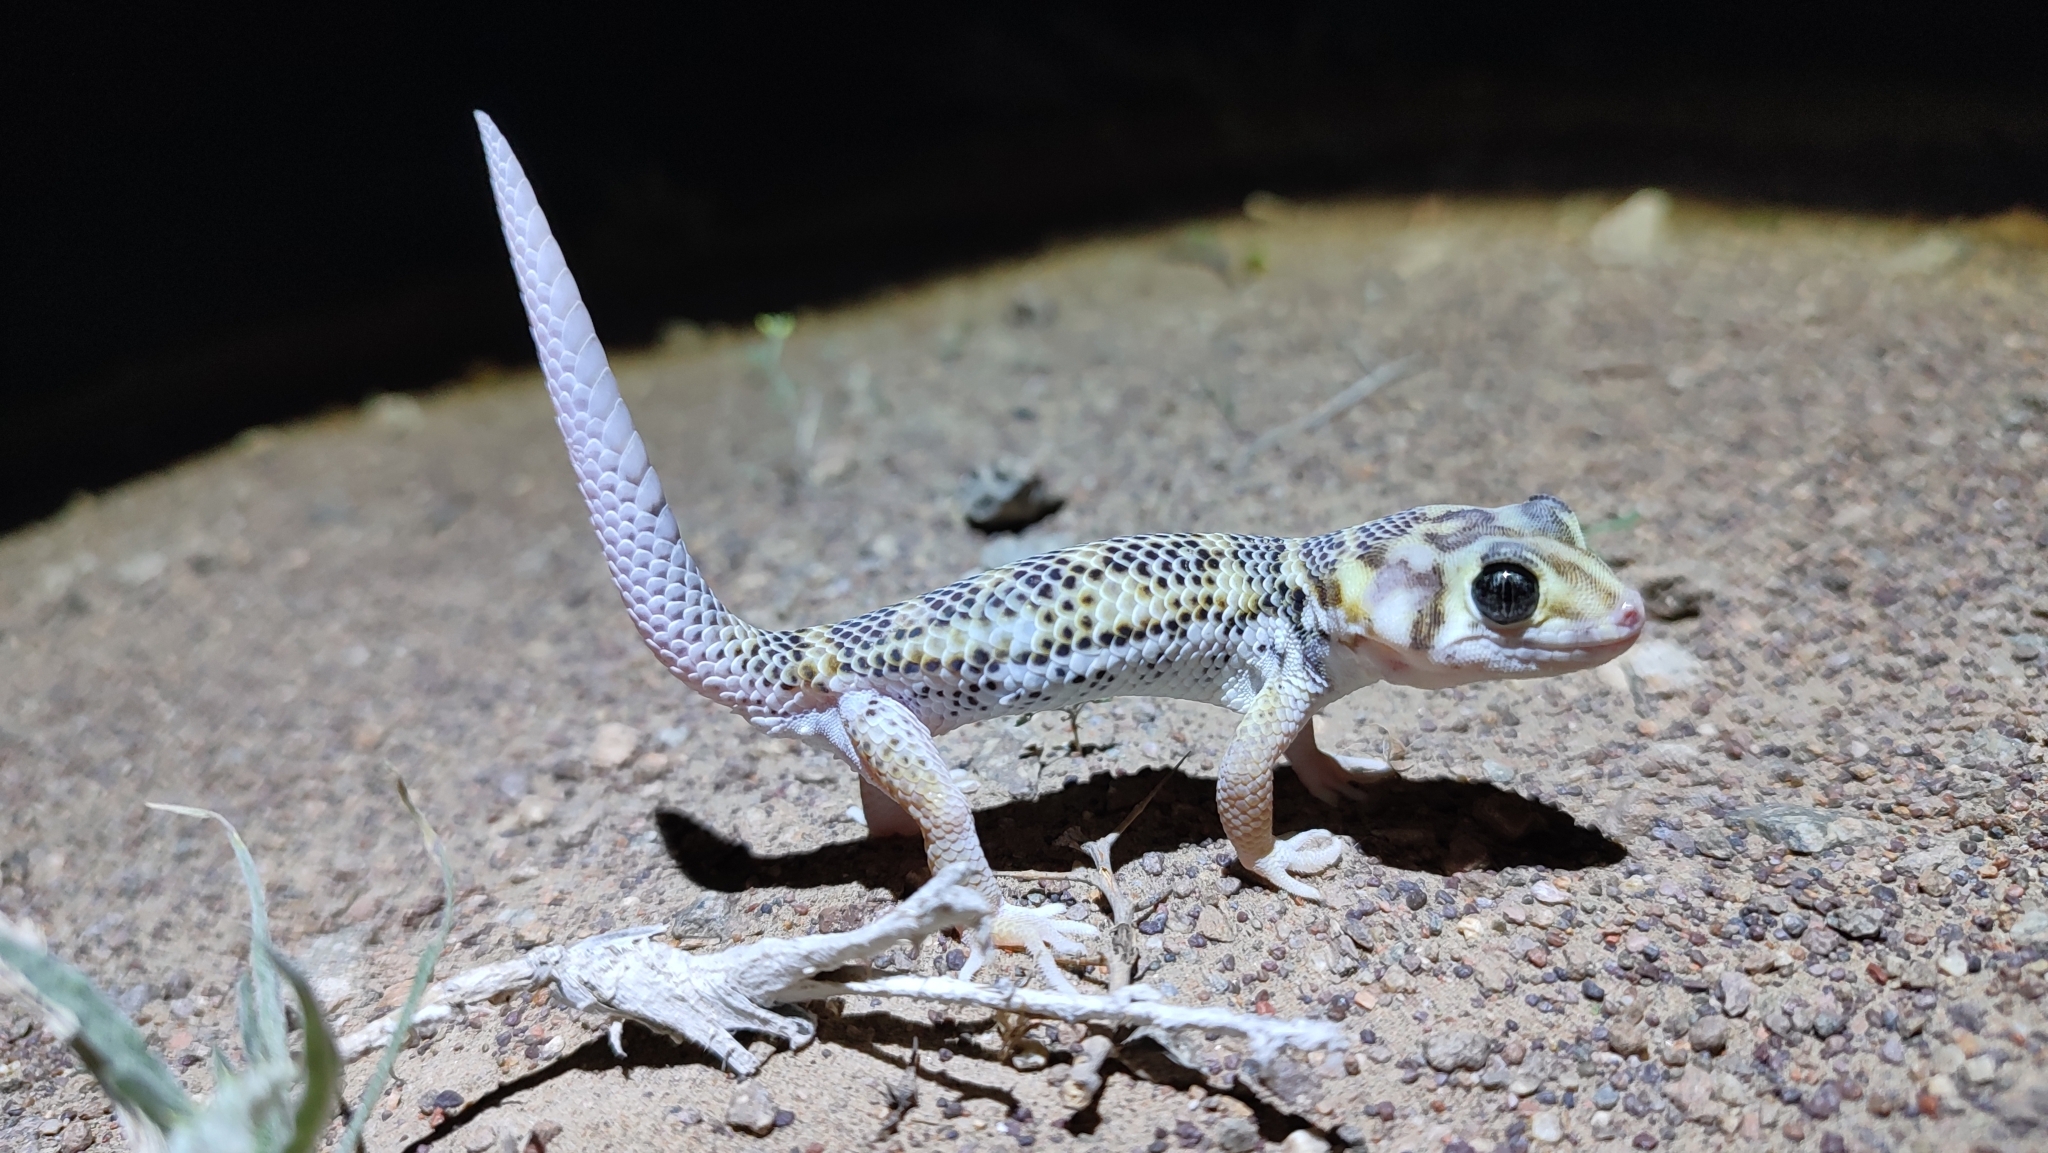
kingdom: Animalia
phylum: Chordata
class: Squamata
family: Sphaerodactylidae
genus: Teratoscincus
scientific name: Teratoscincus scincus
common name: Common wonder gecko
